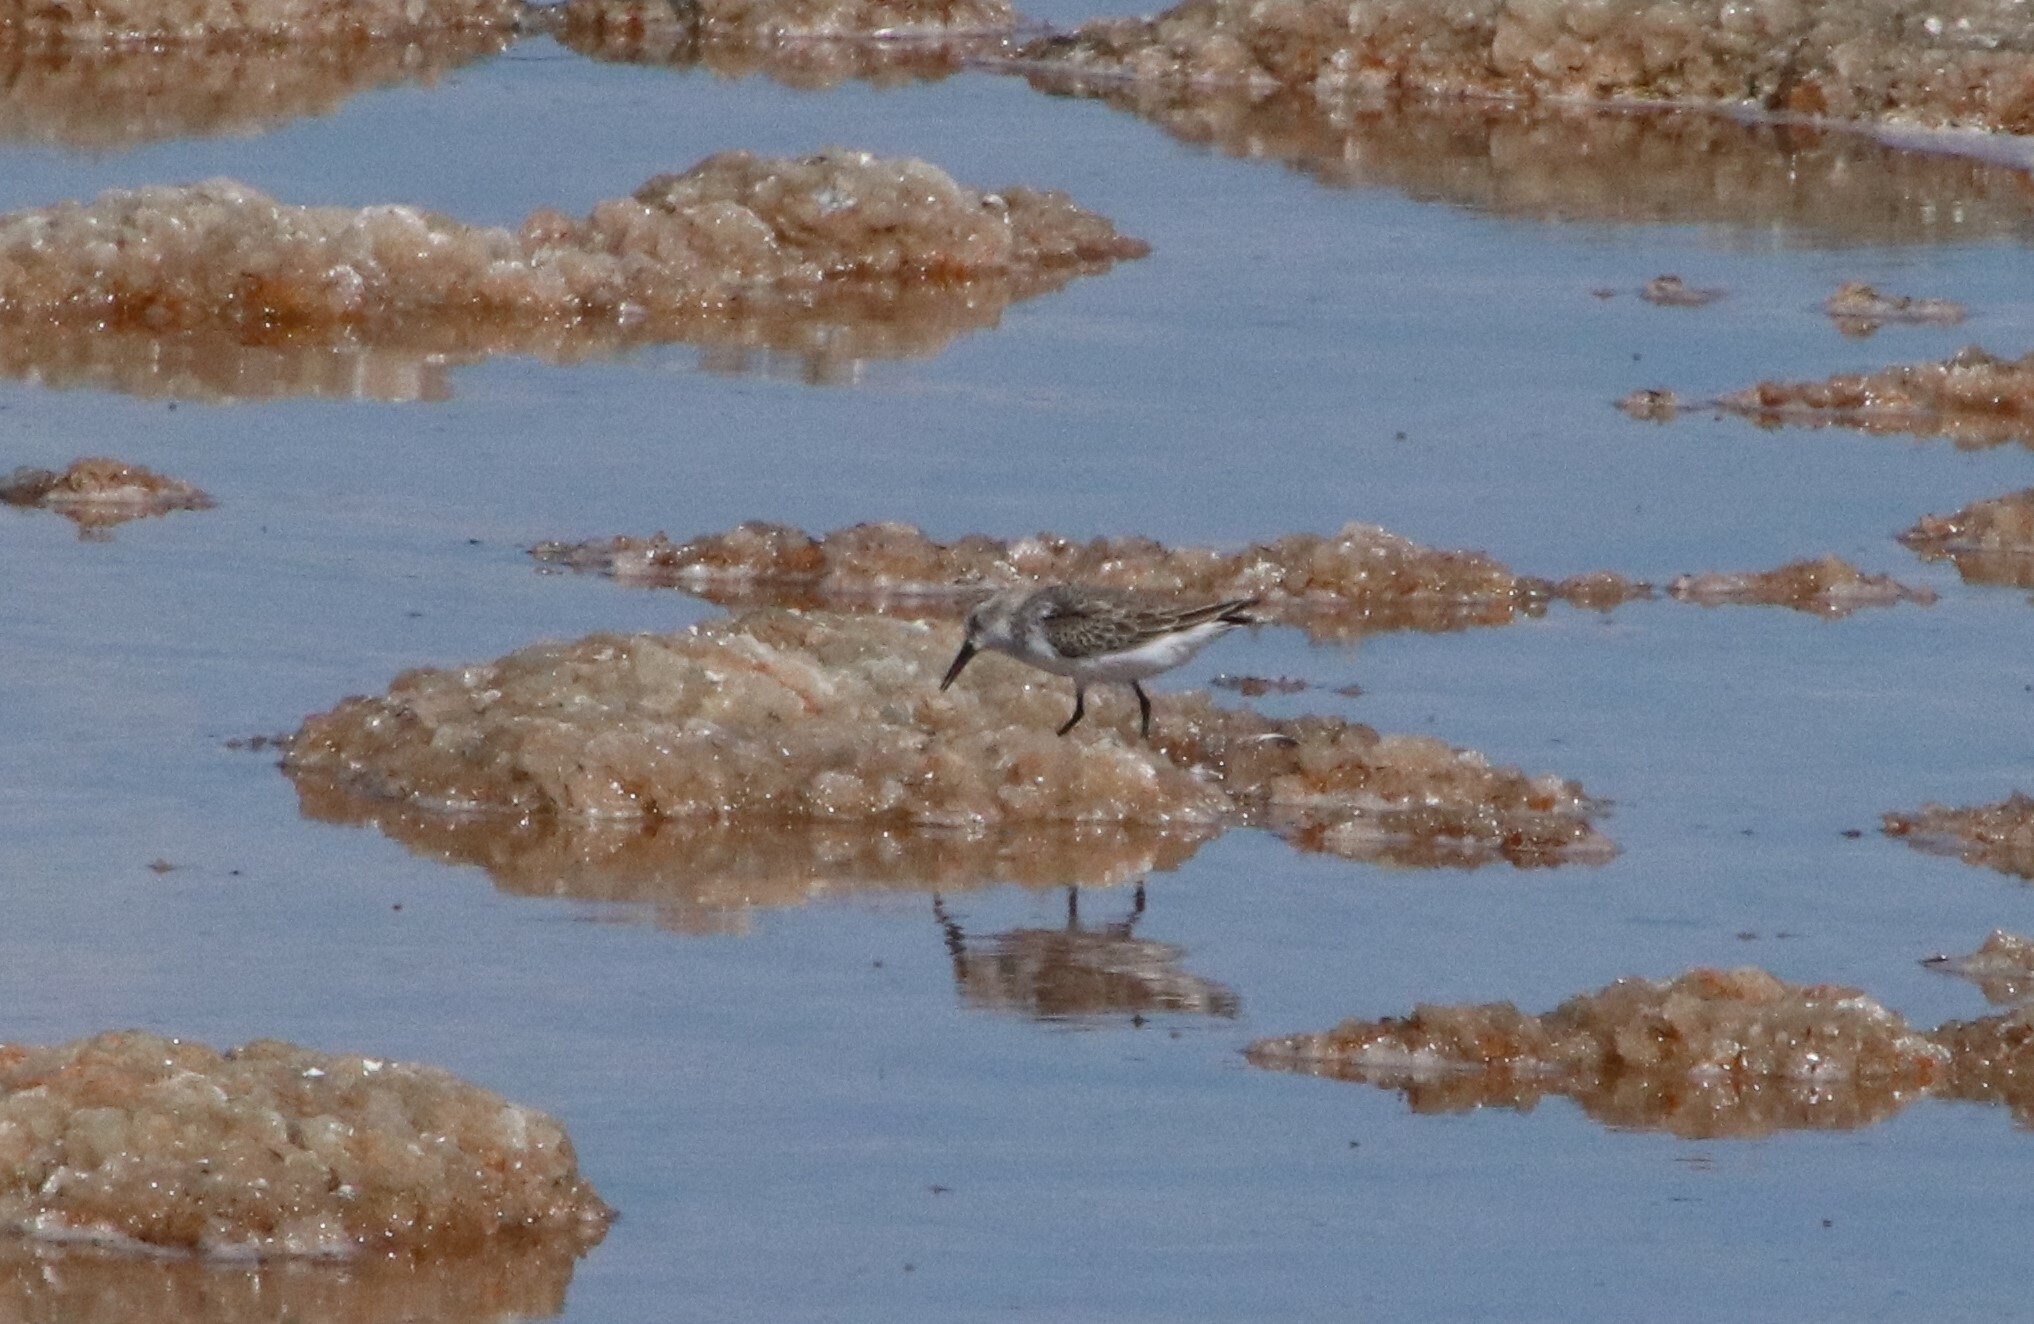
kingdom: Animalia
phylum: Chordata
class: Aves
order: Charadriiformes
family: Scolopacidae
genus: Calidris
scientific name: Calidris mauri
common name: Western sandpiper
